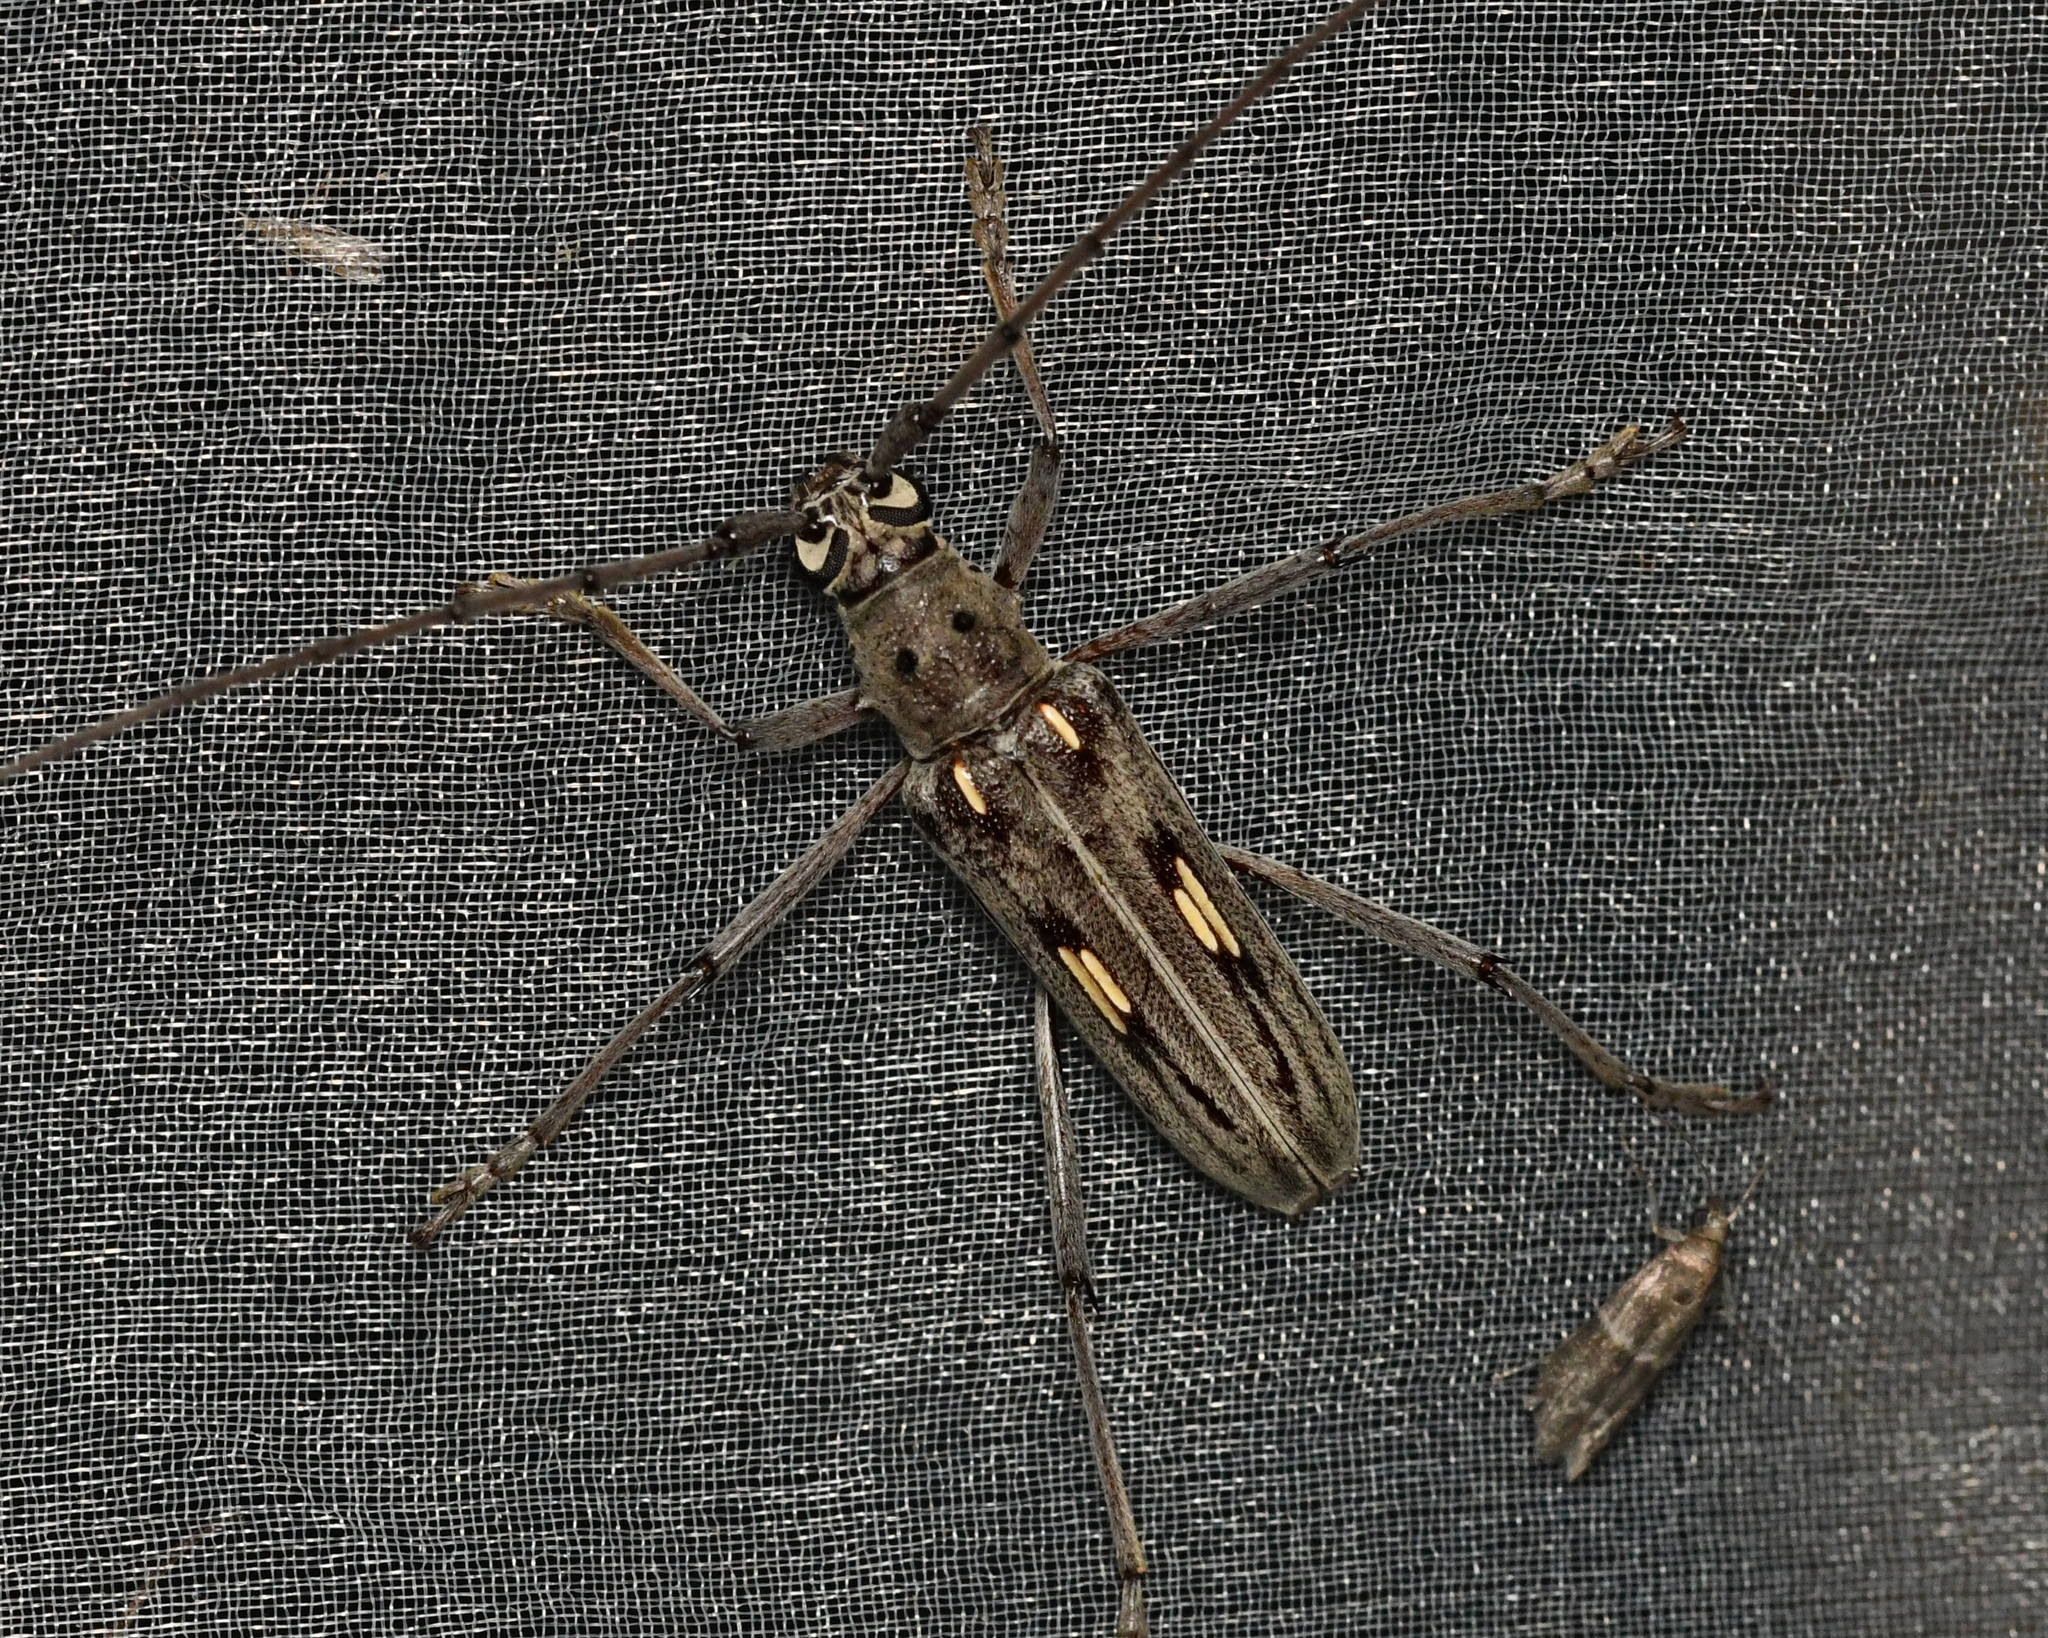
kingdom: Animalia
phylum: Arthropoda
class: Insecta
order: Coleoptera
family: Cerambycidae
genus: Eburia
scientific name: Eburia stigma
